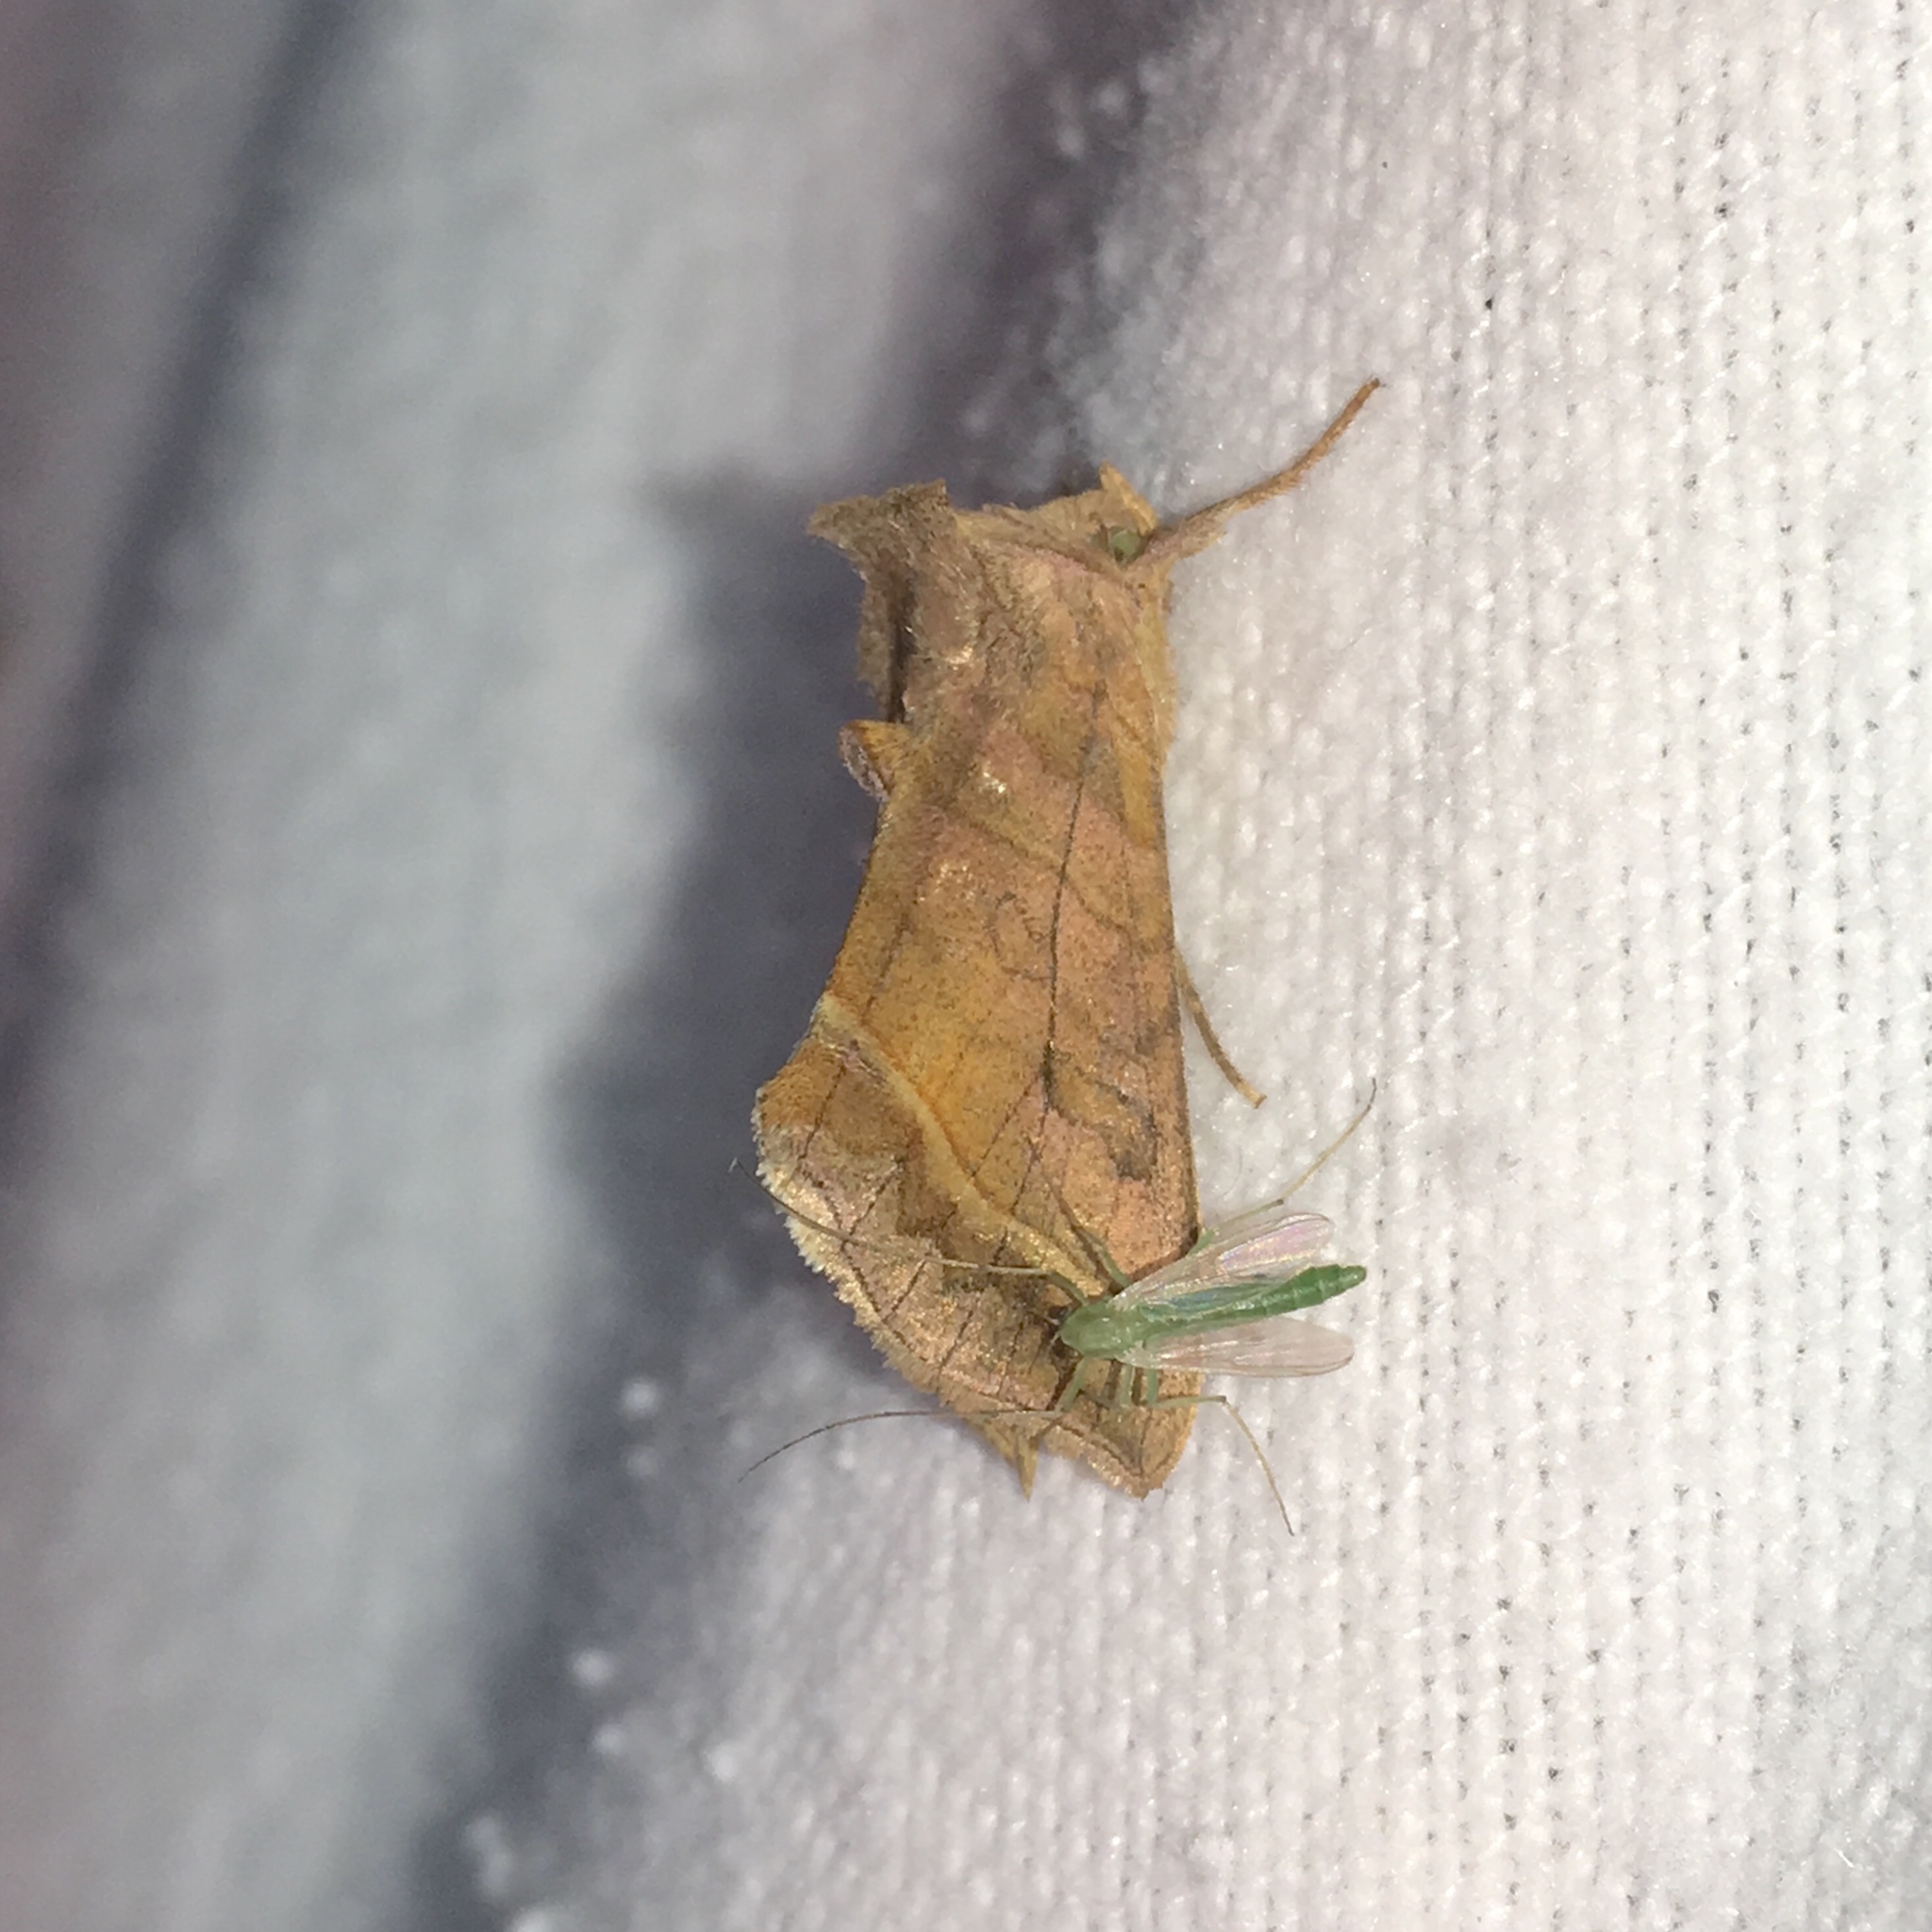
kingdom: Animalia
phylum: Arthropoda
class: Insecta
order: Lepidoptera
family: Noctuidae
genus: Diachrysia
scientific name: Diachrysia aereoides
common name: Dark-spotted looper moth
